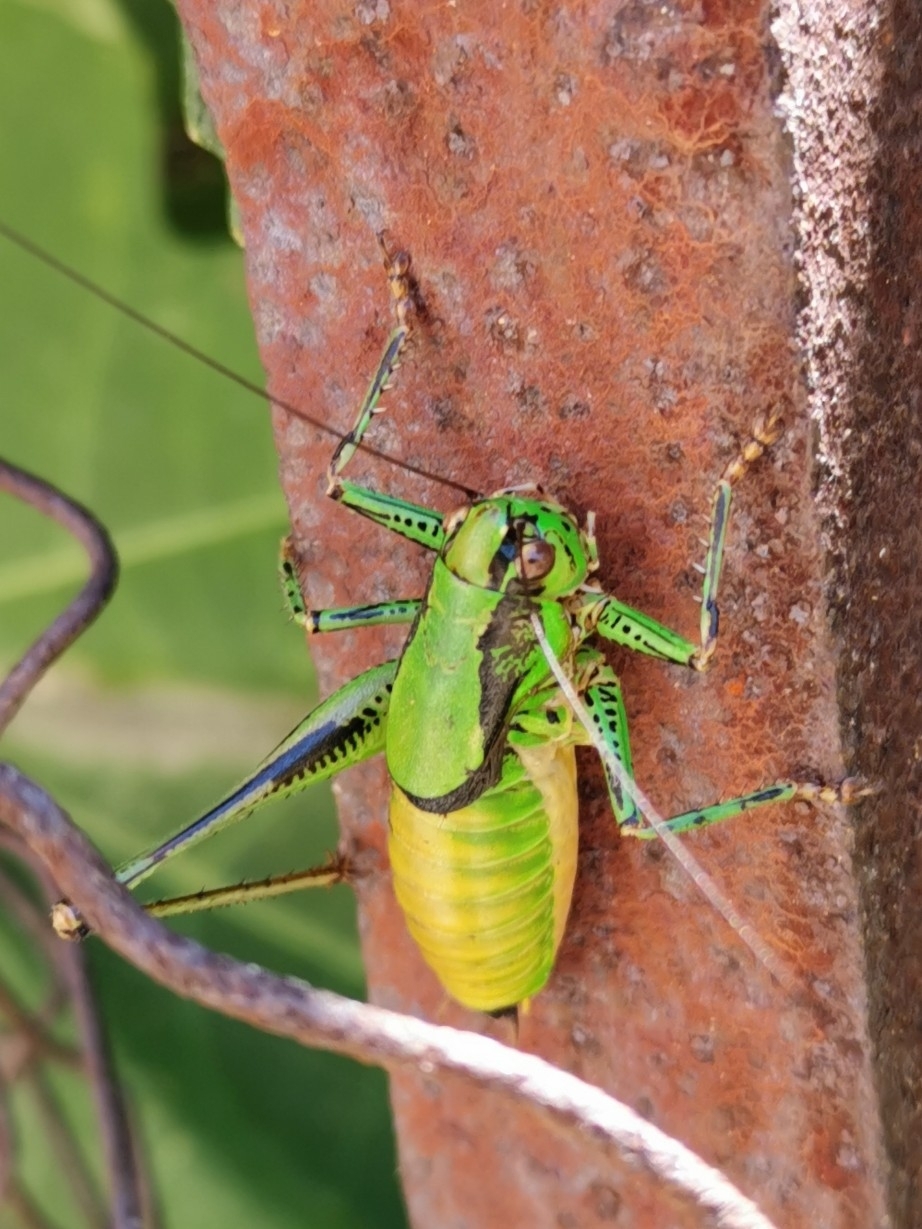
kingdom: Animalia
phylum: Arthropoda
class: Insecta
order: Orthoptera
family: Tettigoniidae
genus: Eupholidoptera
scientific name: Eupholidoptera garganica
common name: Gargano marbled bush-cricket
